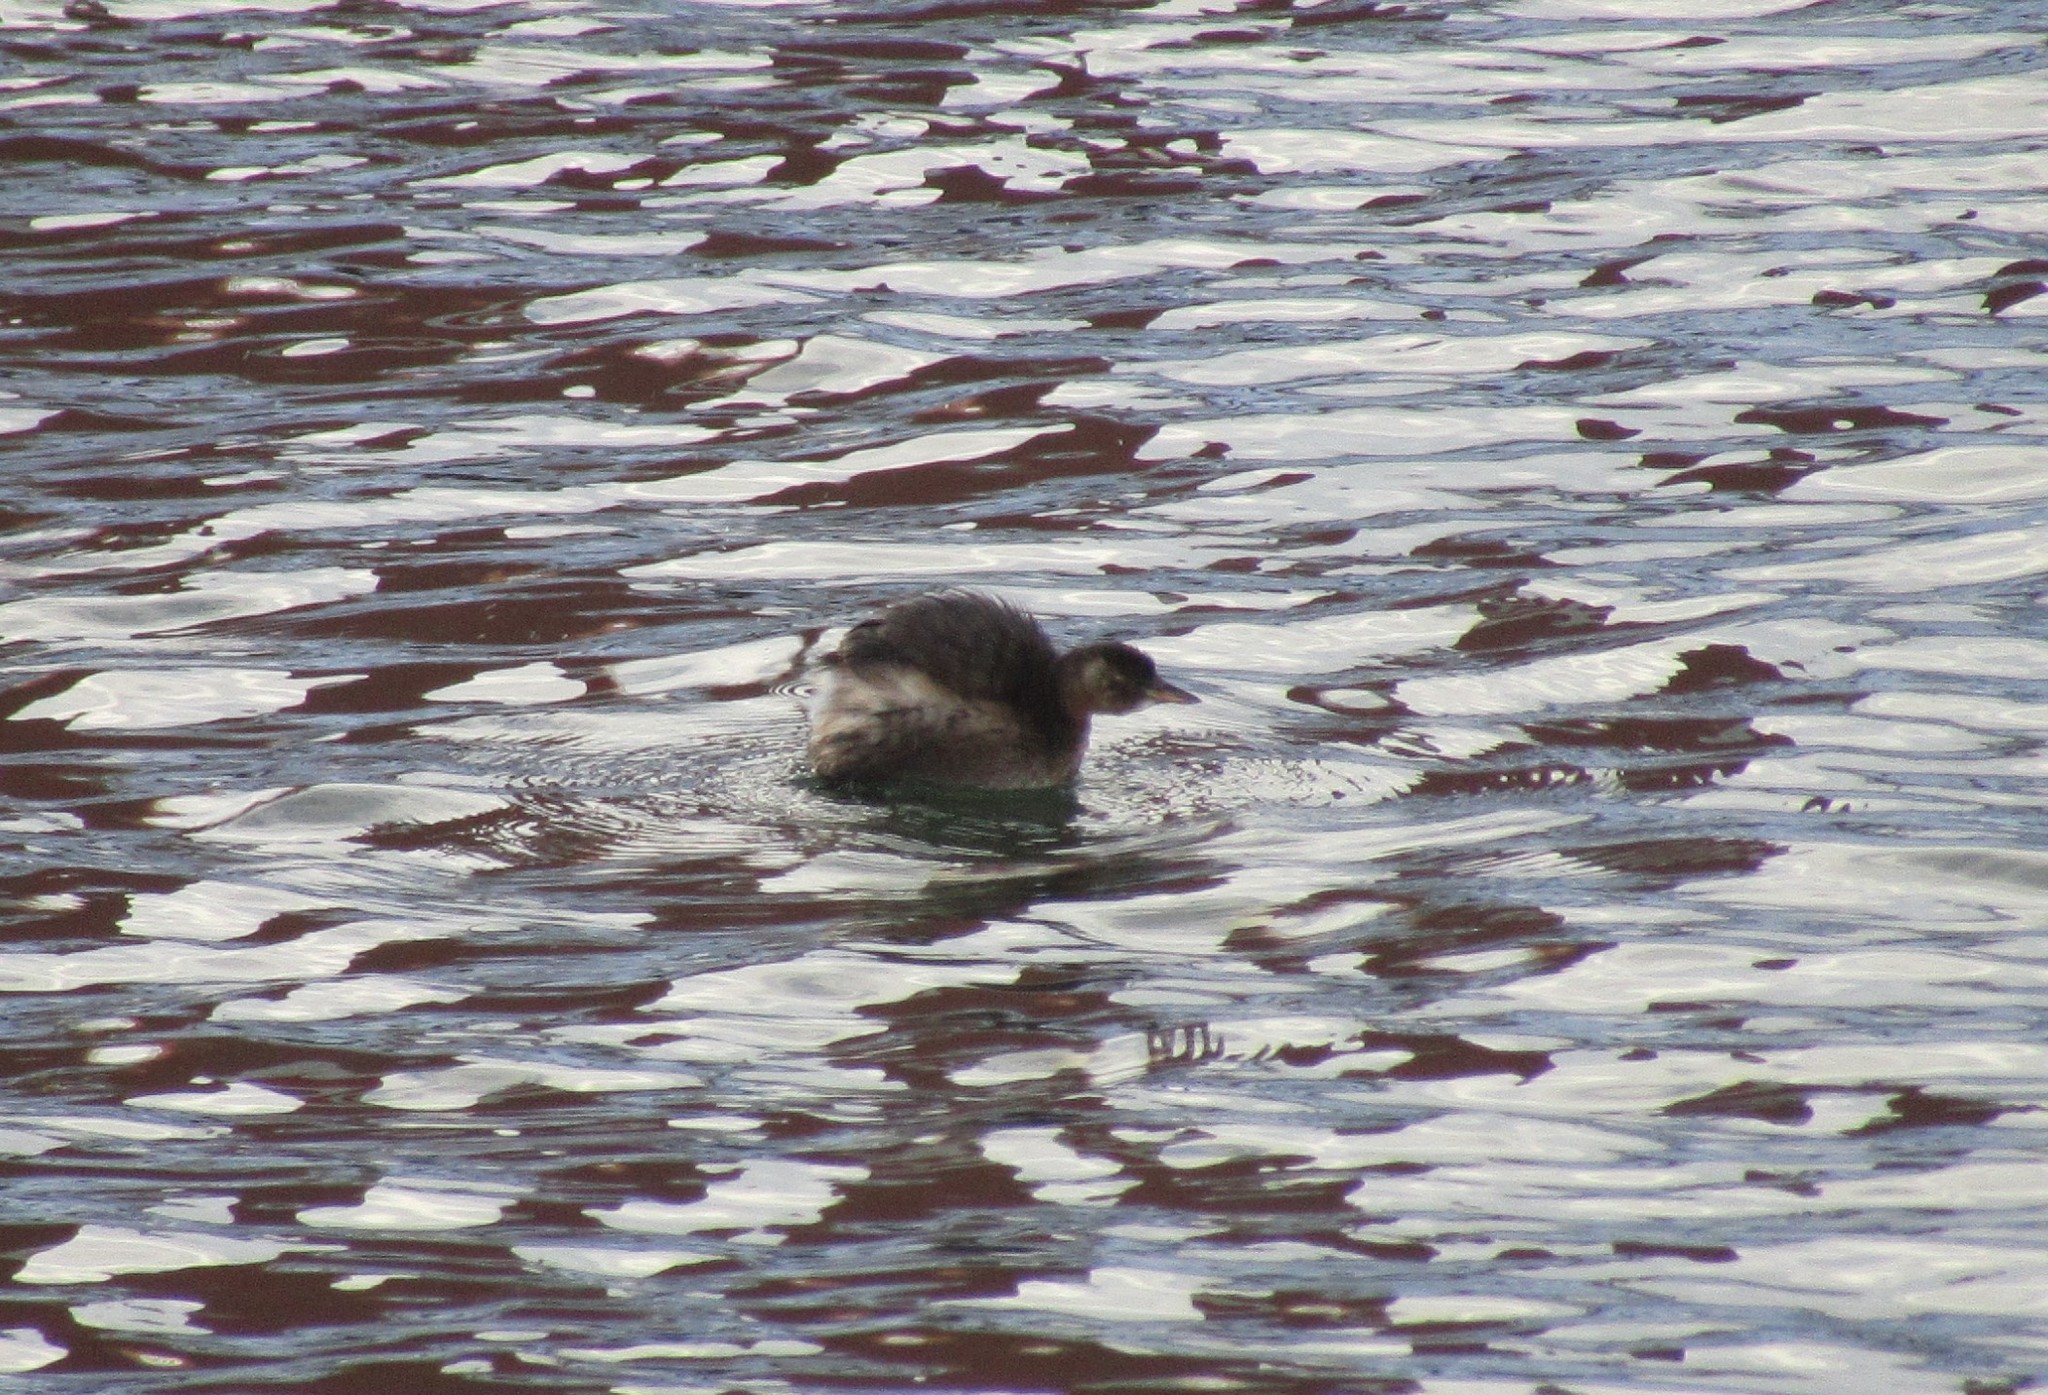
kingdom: Animalia
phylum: Chordata
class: Aves
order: Podicipediformes
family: Podicipedidae
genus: Tachybaptus
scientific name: Tachybaptus ruficollis
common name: Little grebe
